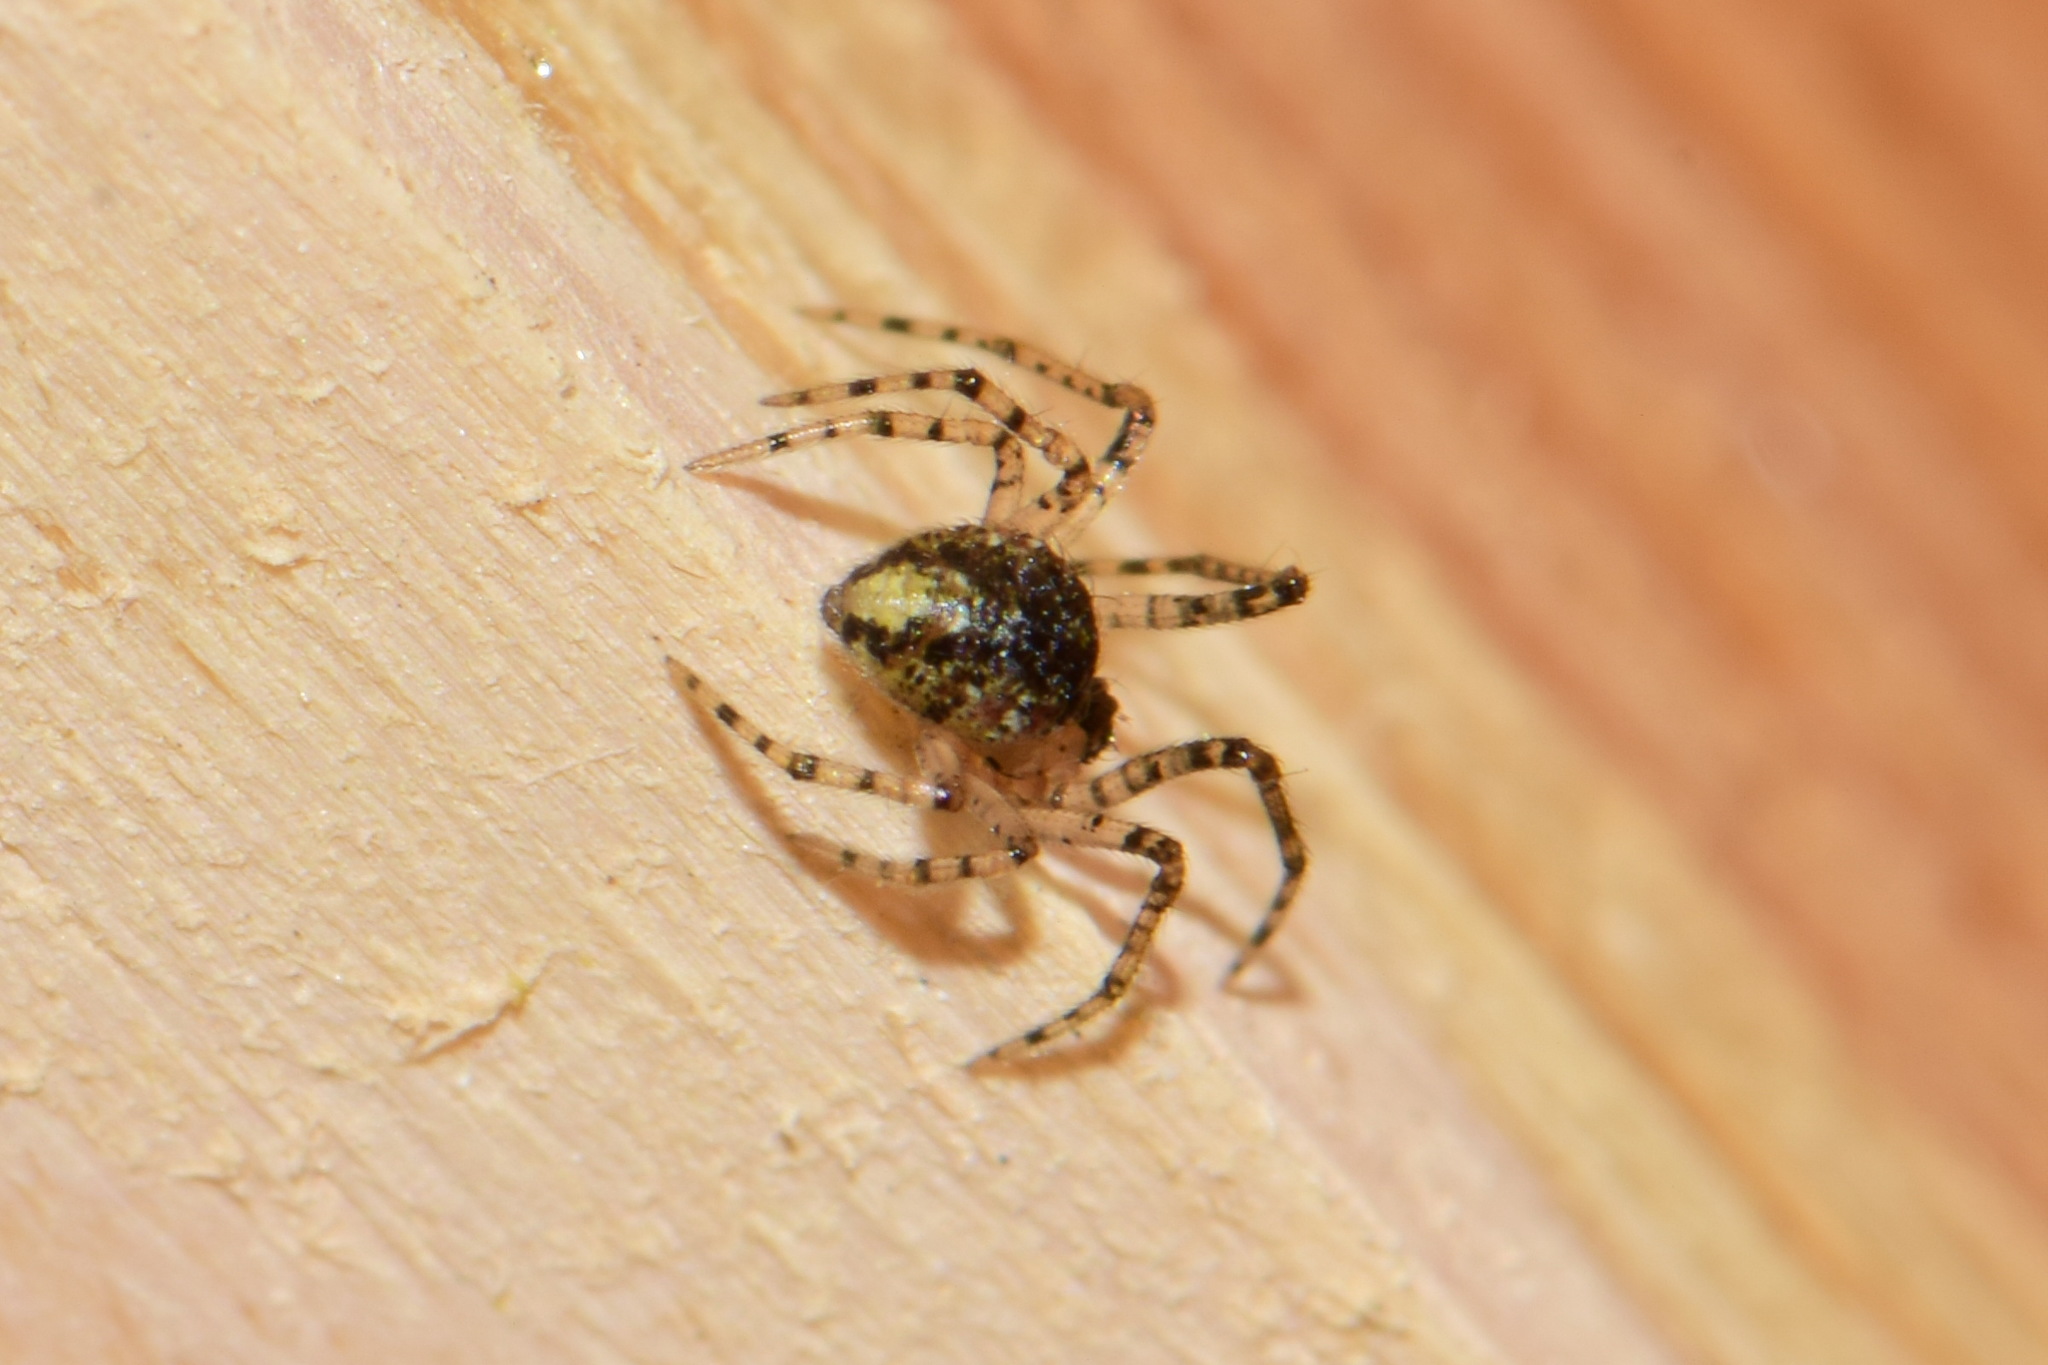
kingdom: Animalia
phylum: Arthropoda
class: Arachnida
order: Araneae
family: Theridiidae
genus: Platnickina
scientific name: Platnickina tincta
